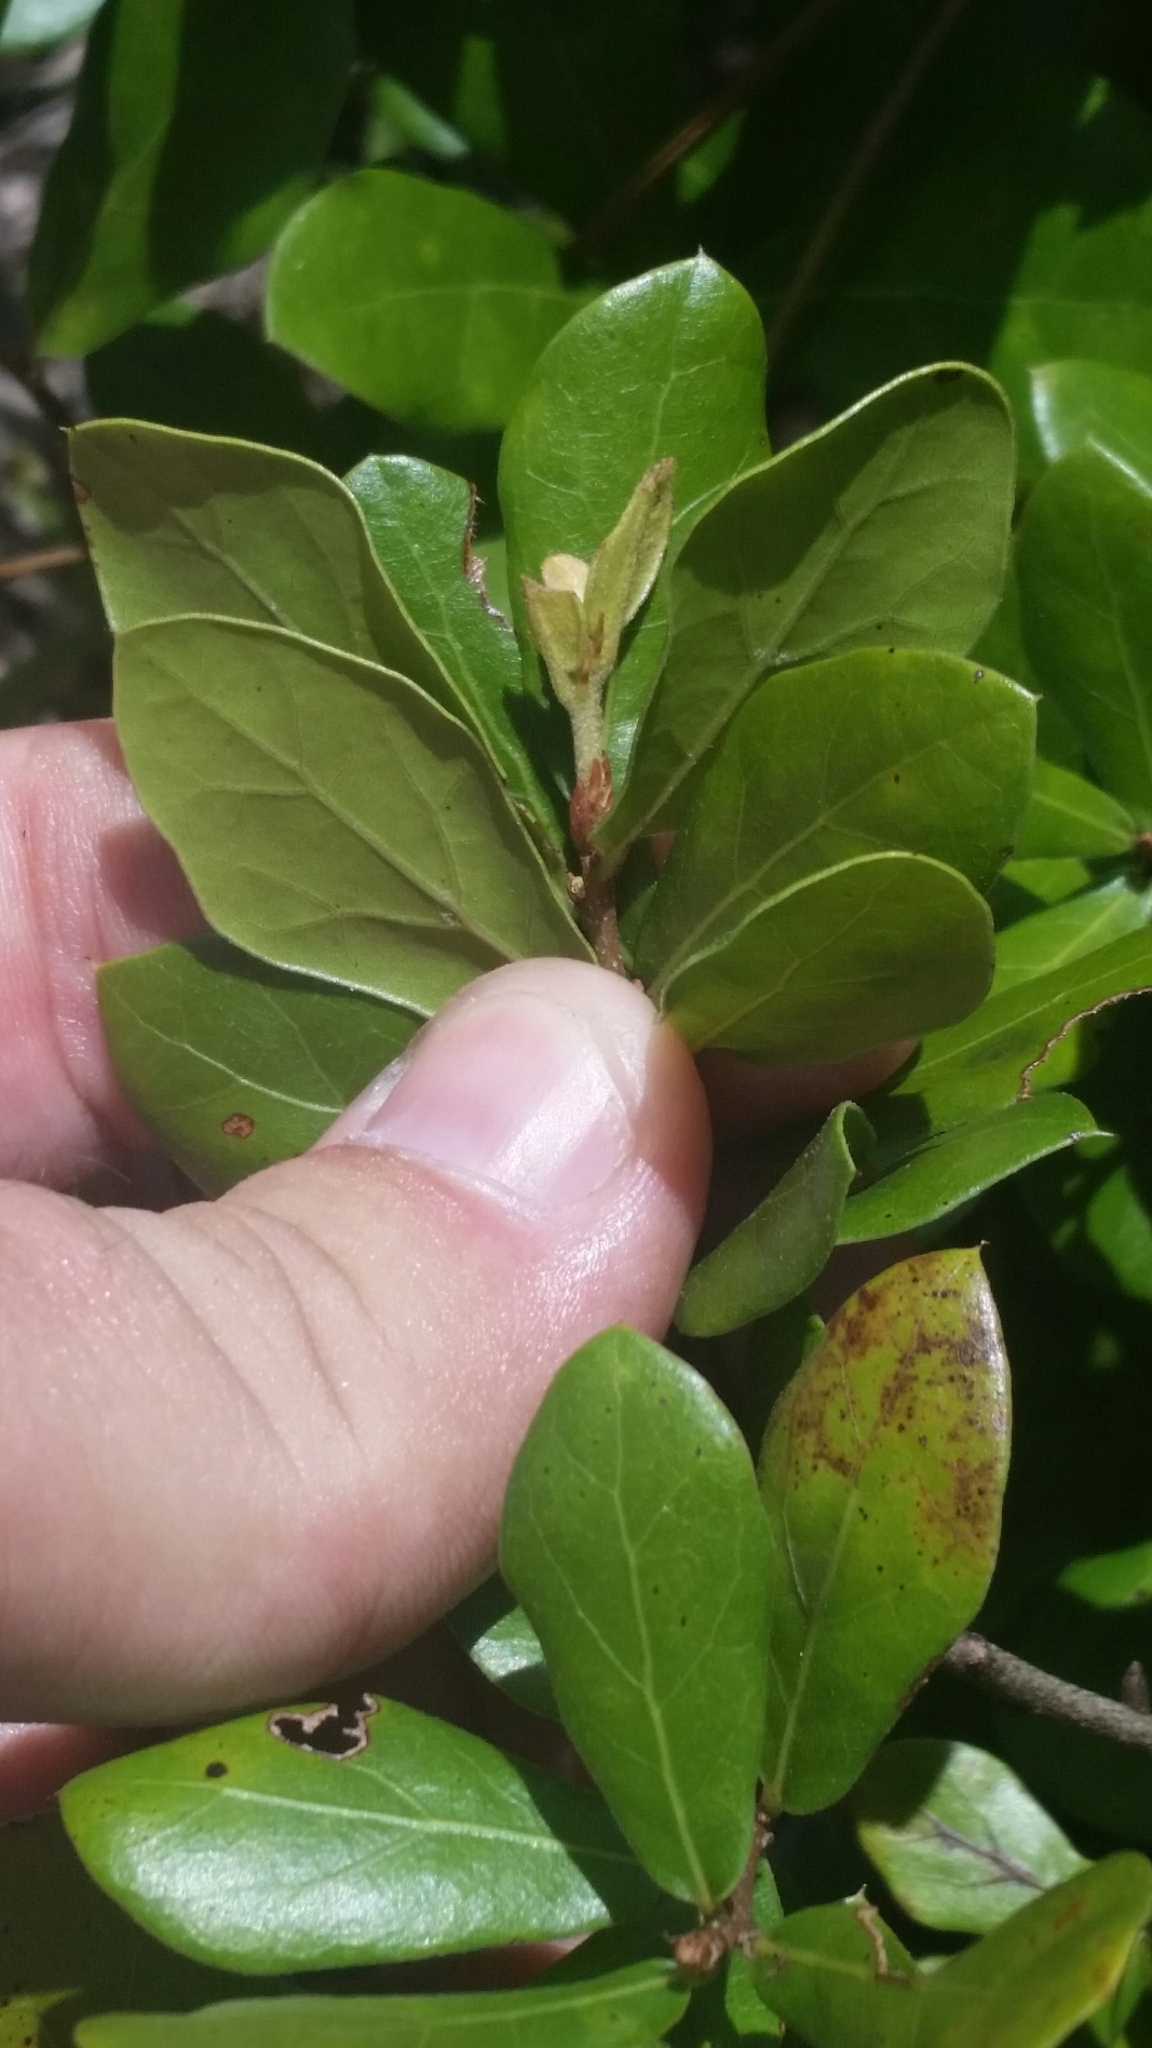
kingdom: Plantae
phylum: Tracheophyta
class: Magnoliopsida
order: Fagales
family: Fagaceae
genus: Quercus
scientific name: Quercus myrtifolia
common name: Myrtle oak
